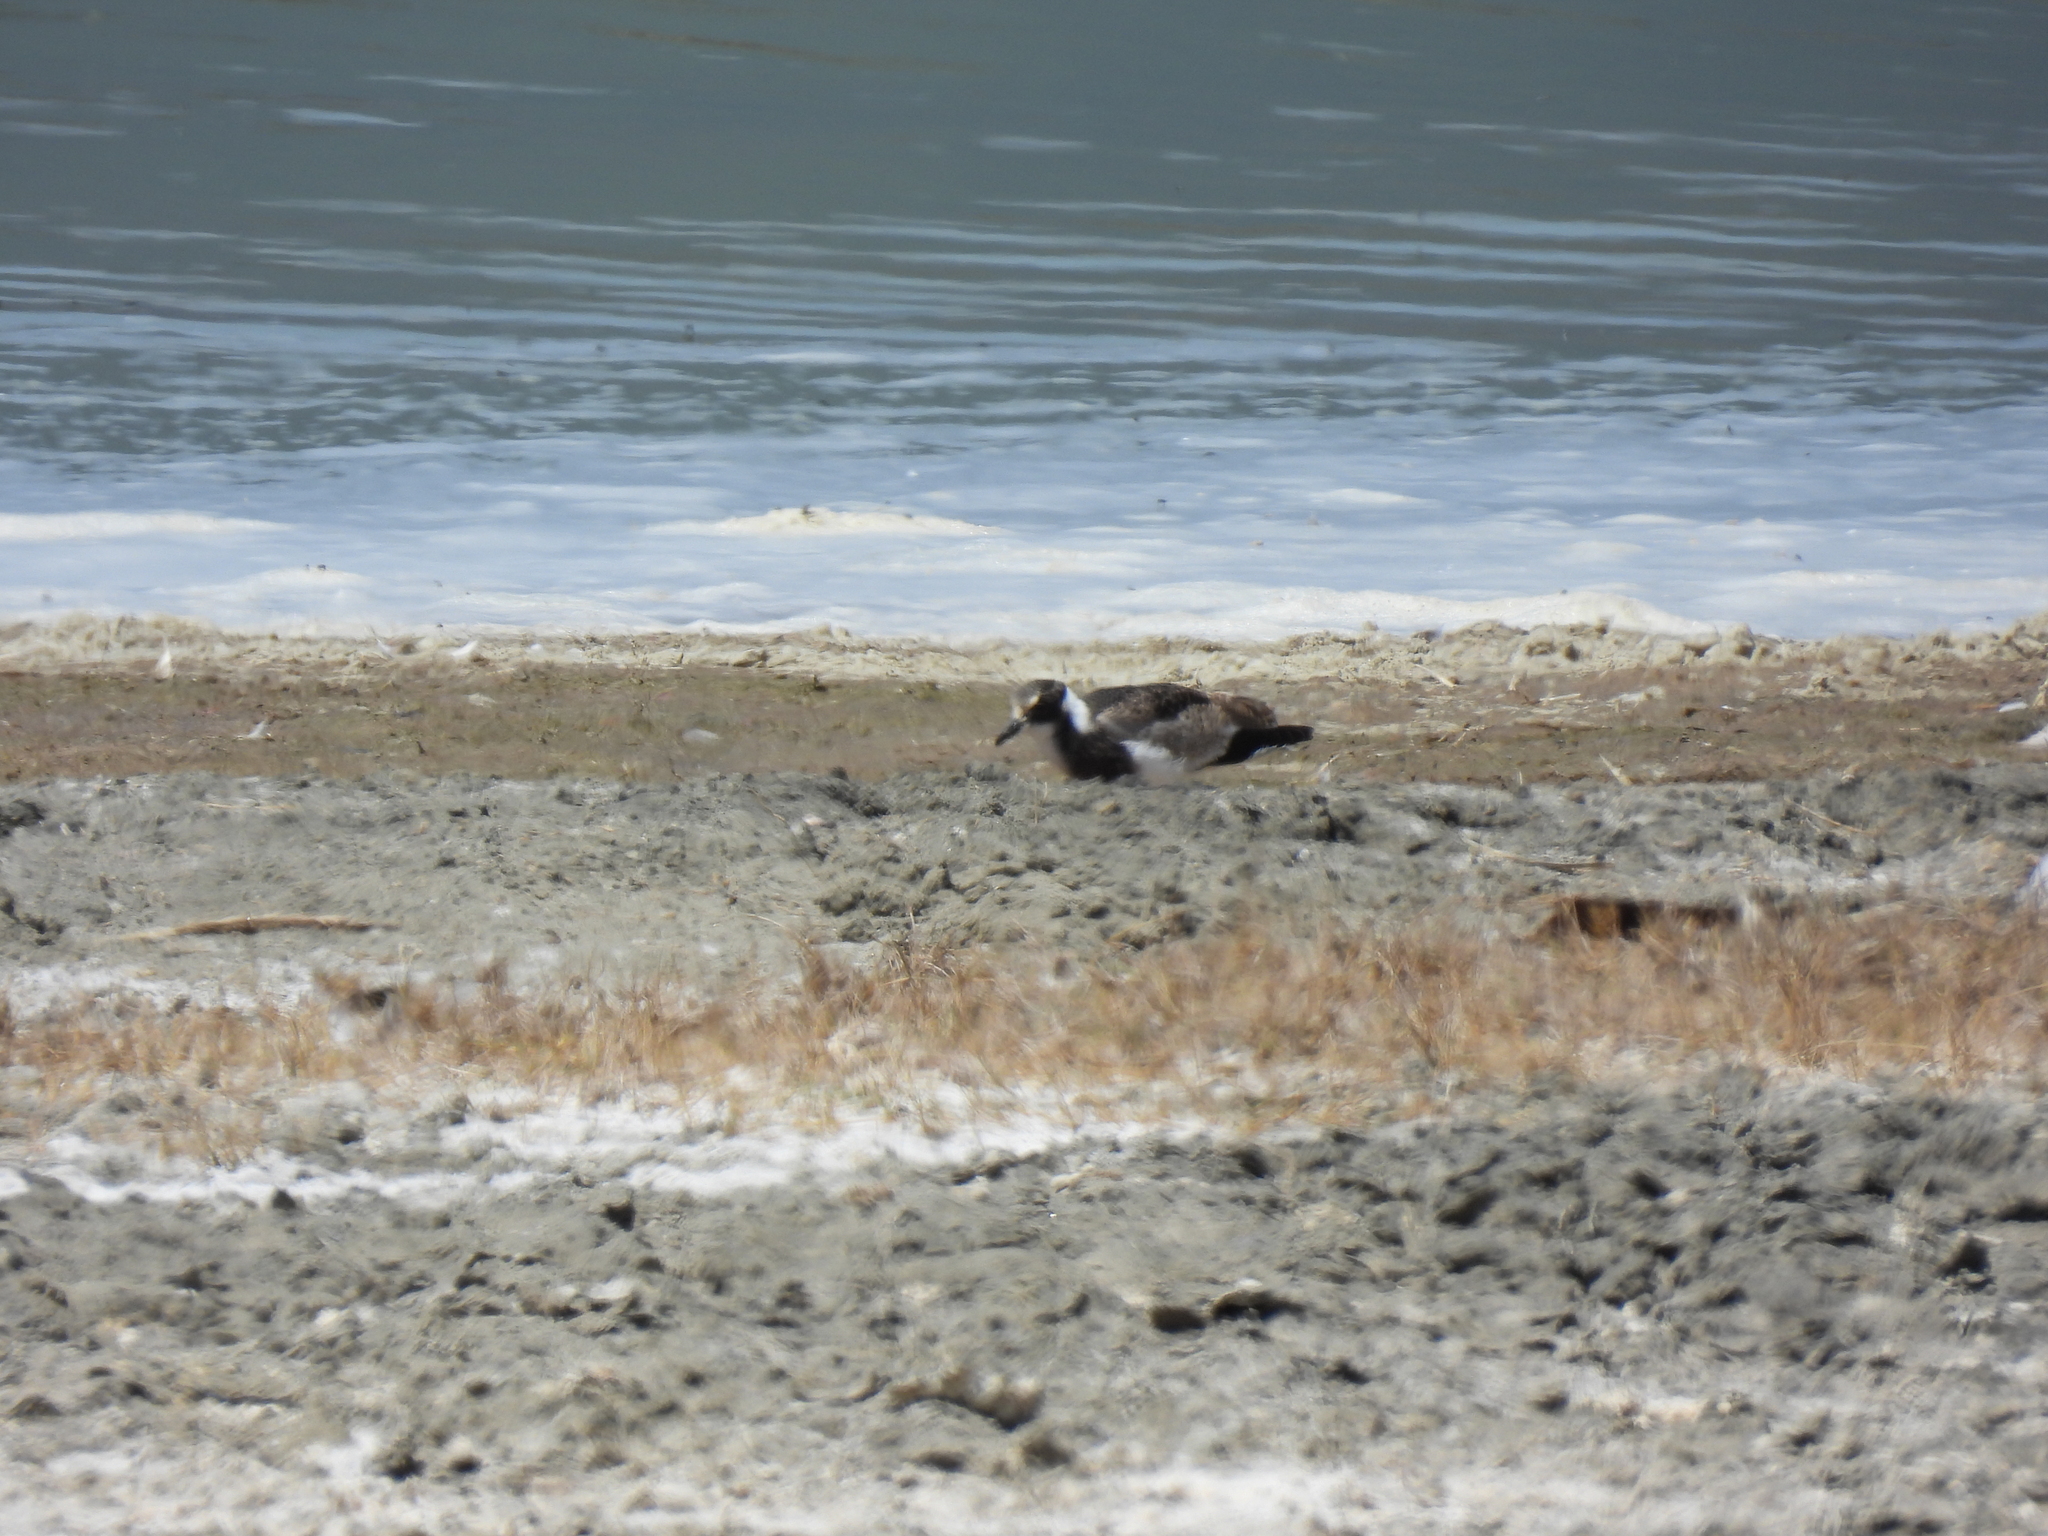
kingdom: Animalia
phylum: Chordata
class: Aves
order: Charadriiformes
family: Charadriidae
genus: Vanellus
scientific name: Vanellus armatus
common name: Blacksmith lapwing
